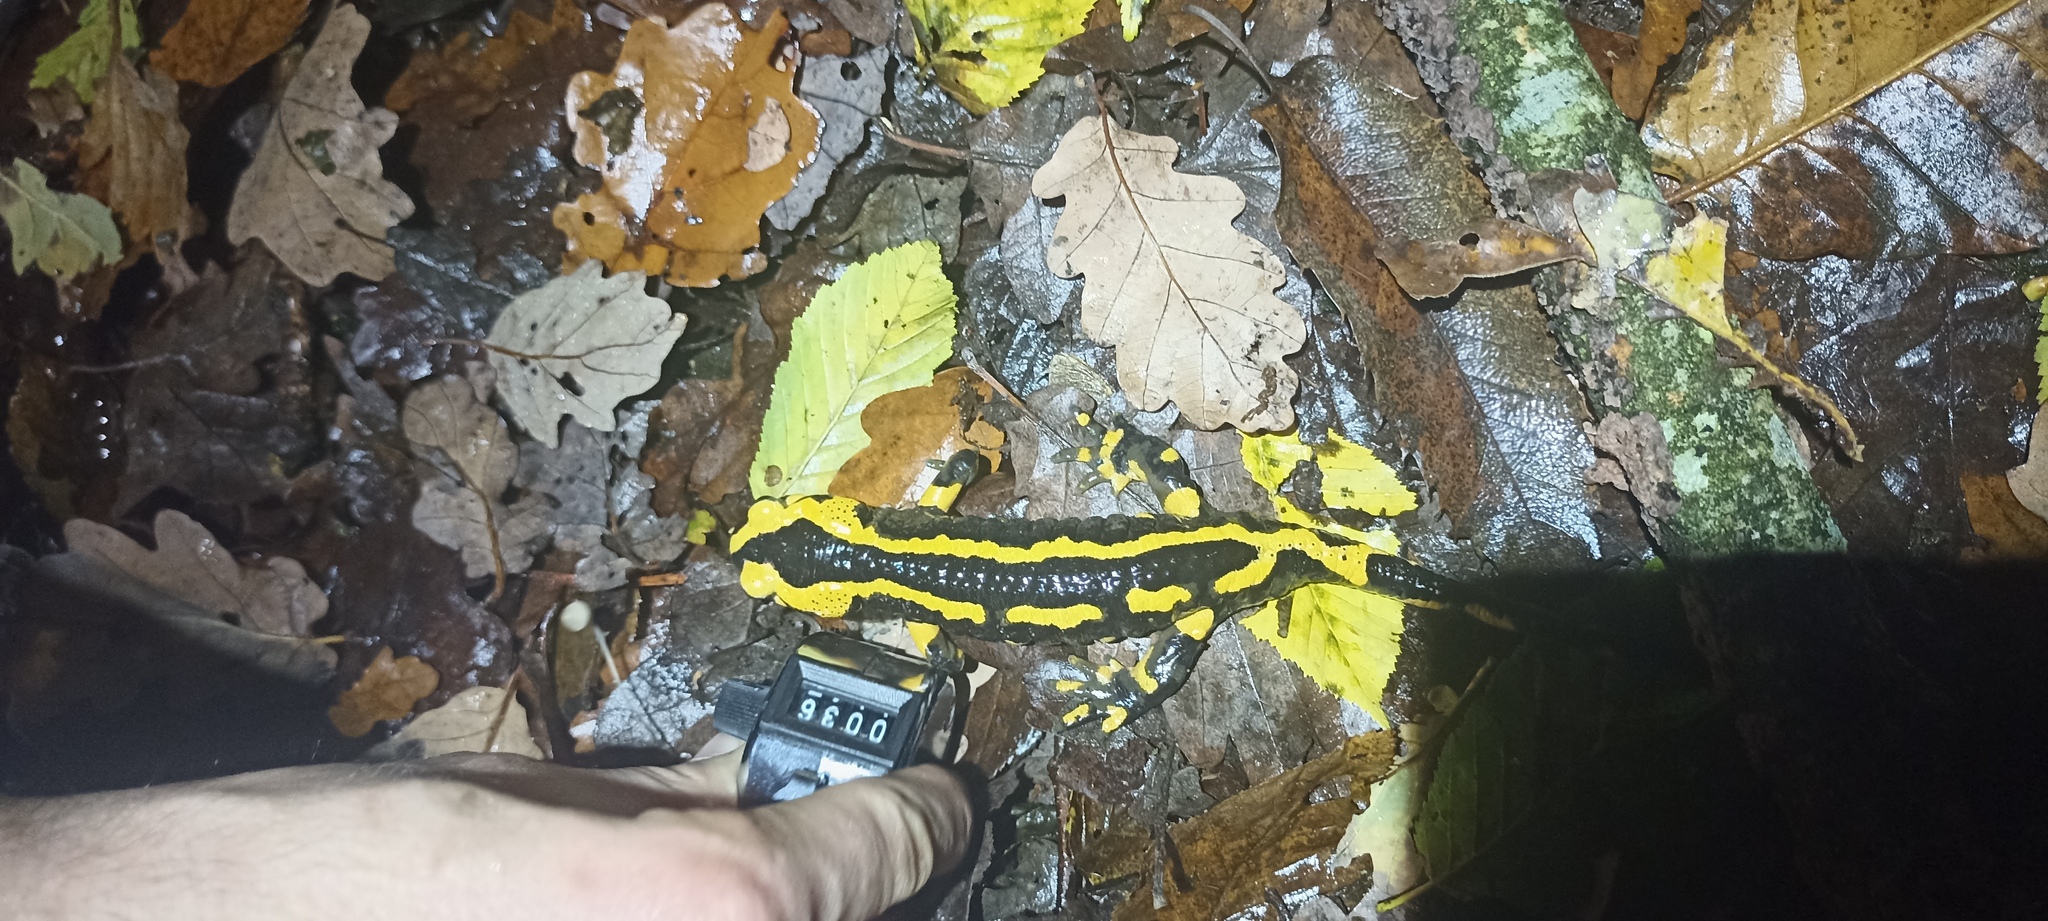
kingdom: Animalia
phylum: Chordata
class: Amphibia
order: Caudata
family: Salamandridae
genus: Salamandra
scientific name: Salamandra salamandra
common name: Fire salamander
